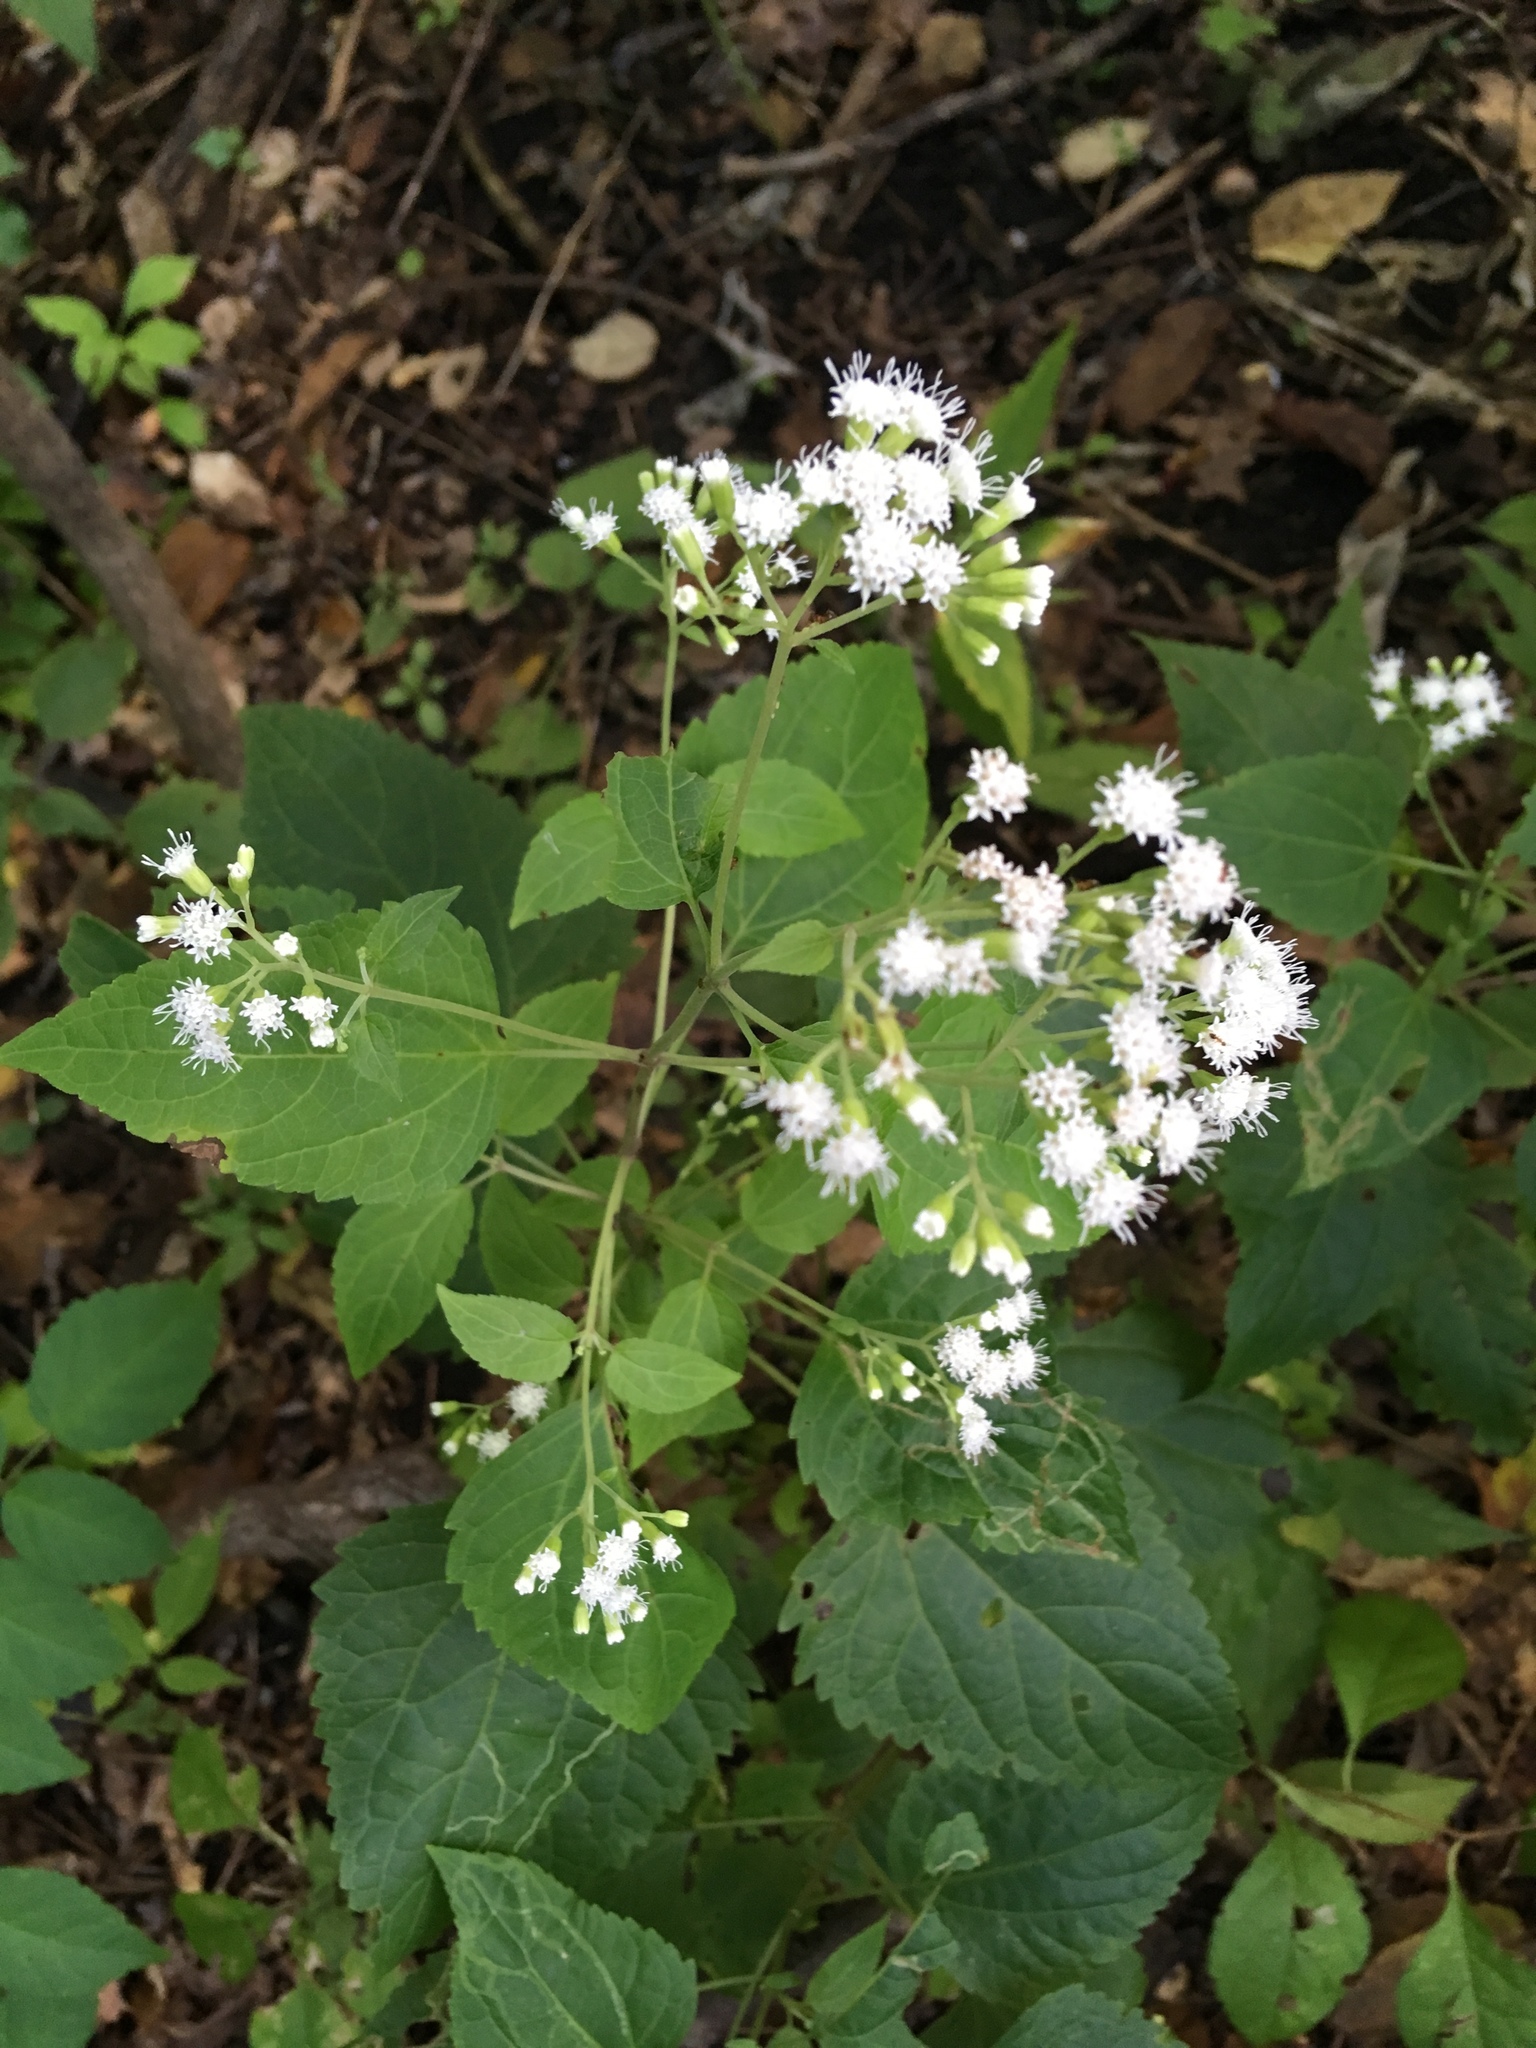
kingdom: Plantae
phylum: Tracheophyta
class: Magnoliopsida
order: Asterales
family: Asteraceae
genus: Ageratina
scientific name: Ageratina altissima
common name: White snakeroot
